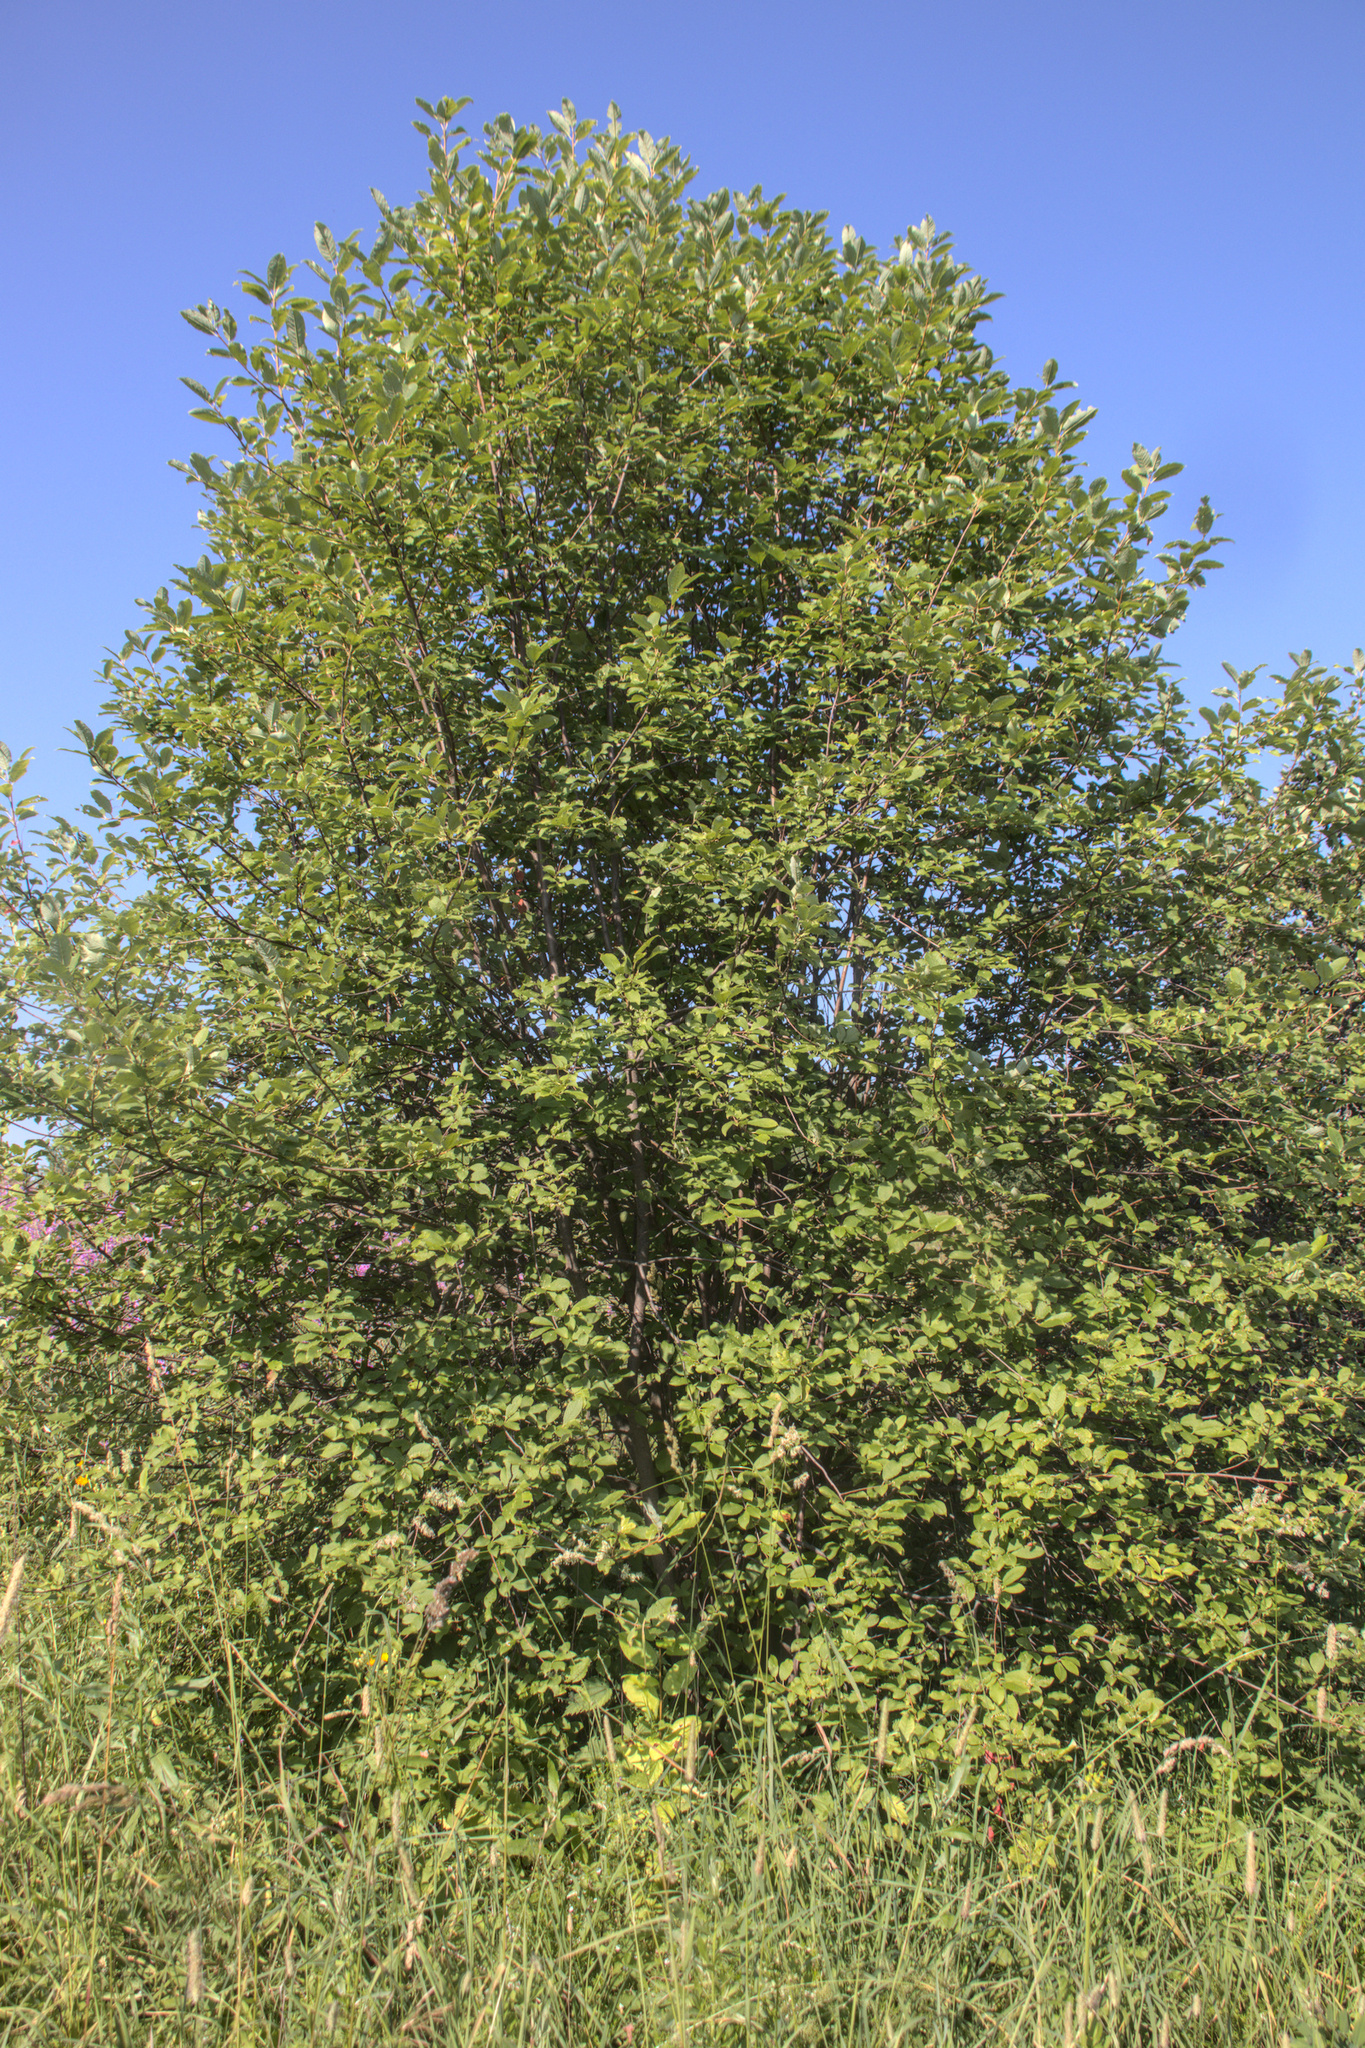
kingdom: Plantae
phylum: Tracheophyta
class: Magnoliopsida
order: Rosales
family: Rosaceae
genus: Prunus
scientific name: Prunus padus
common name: Bird cherry
